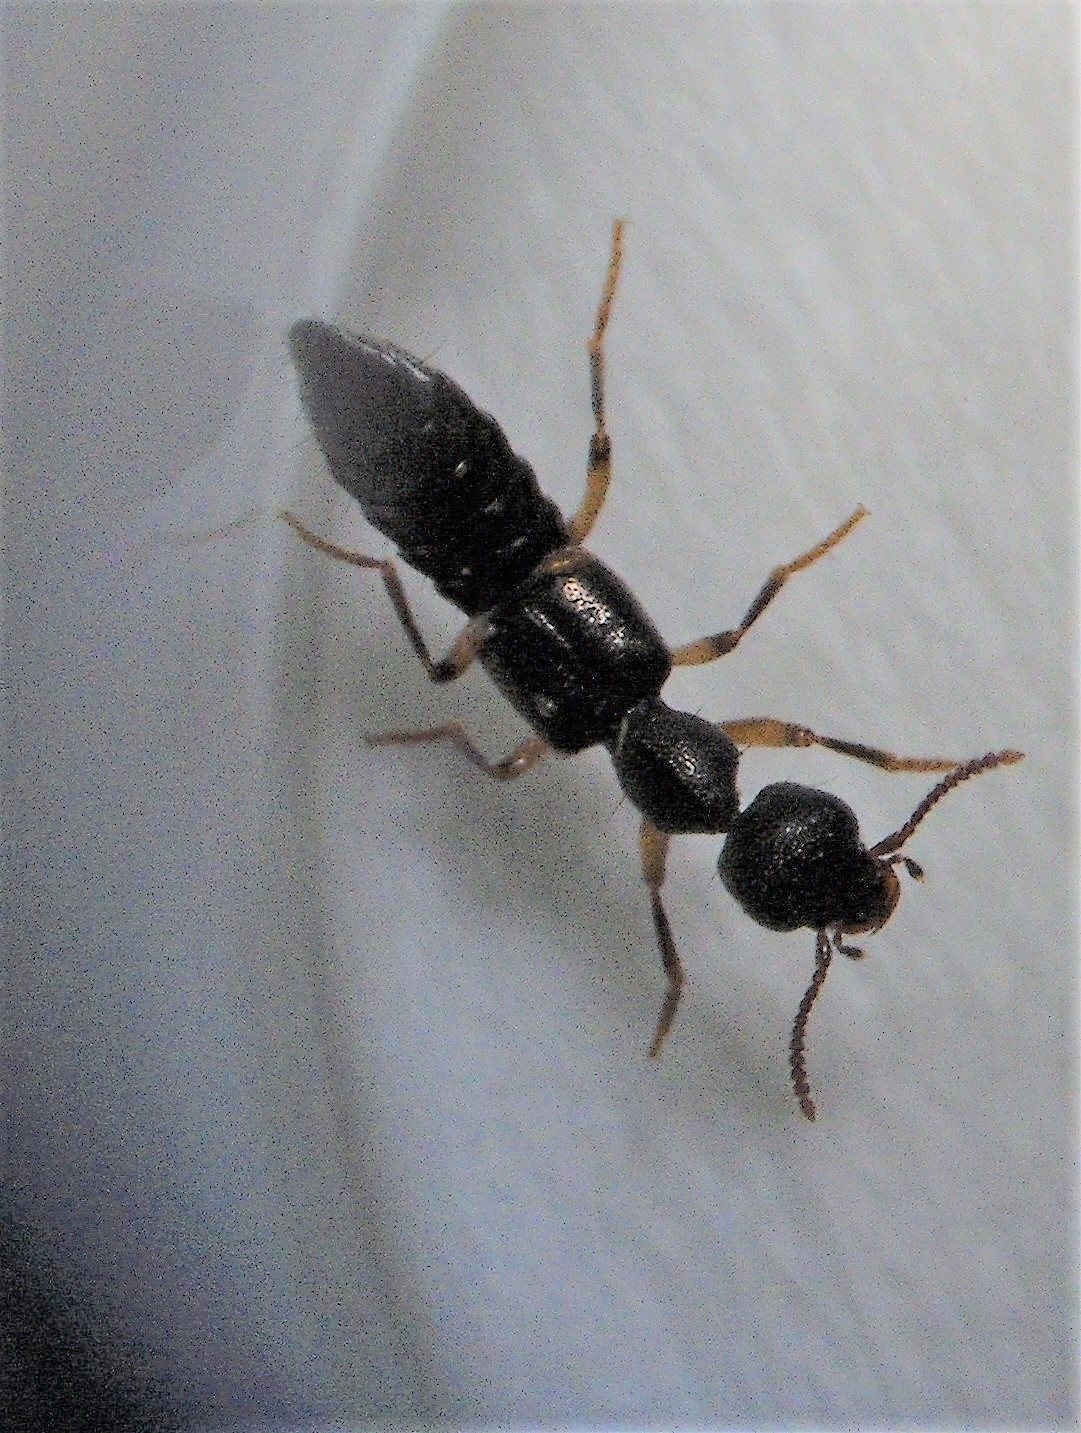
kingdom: Animalia
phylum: Arthropoda
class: Insecta
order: Coleoptera
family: Staphylinidae
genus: Rugilus
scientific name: Rugilus orbiculatus
